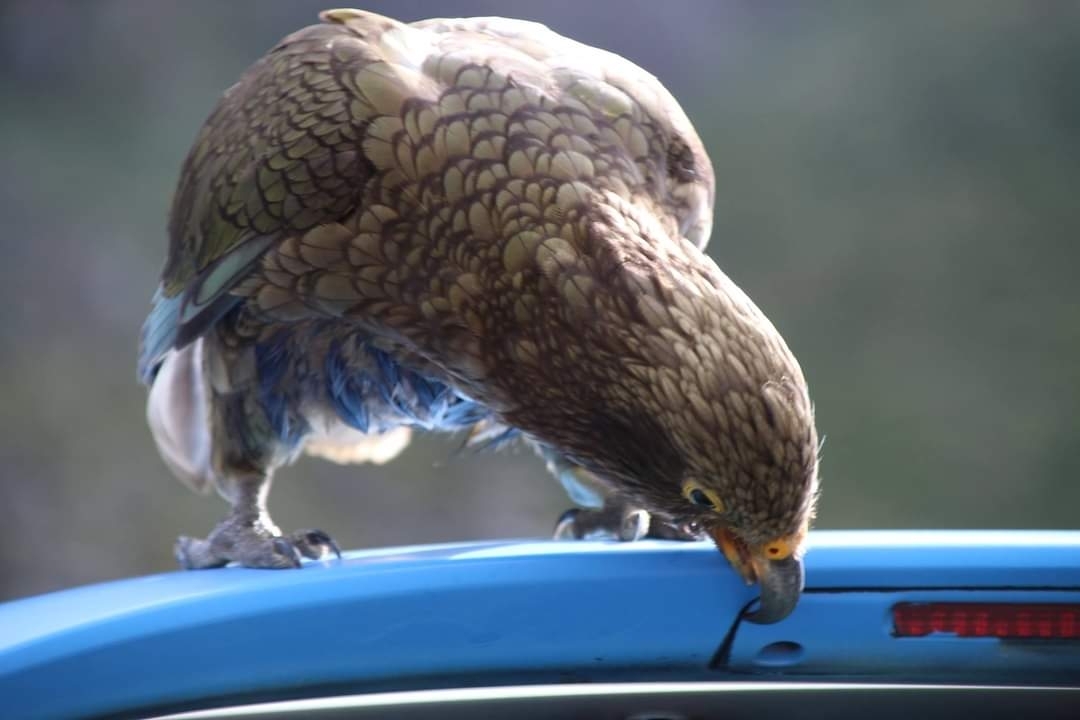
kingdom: Animalia
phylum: Chordata
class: Aves
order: Psittaciformes
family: Psittacidae
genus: Nestor
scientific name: Nestor notabilis
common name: Kea
